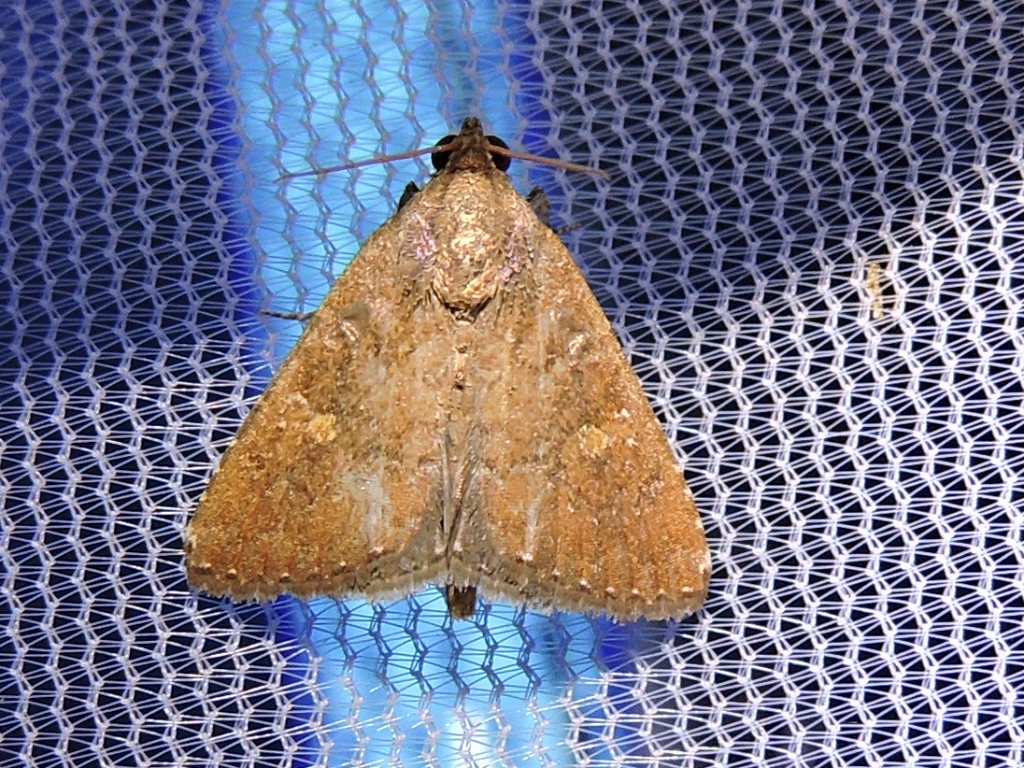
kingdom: Animalia
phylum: Arthropoda
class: Insecta
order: Lepidoptera
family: Noctuidae
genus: Amyna
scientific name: Amyna stricta
